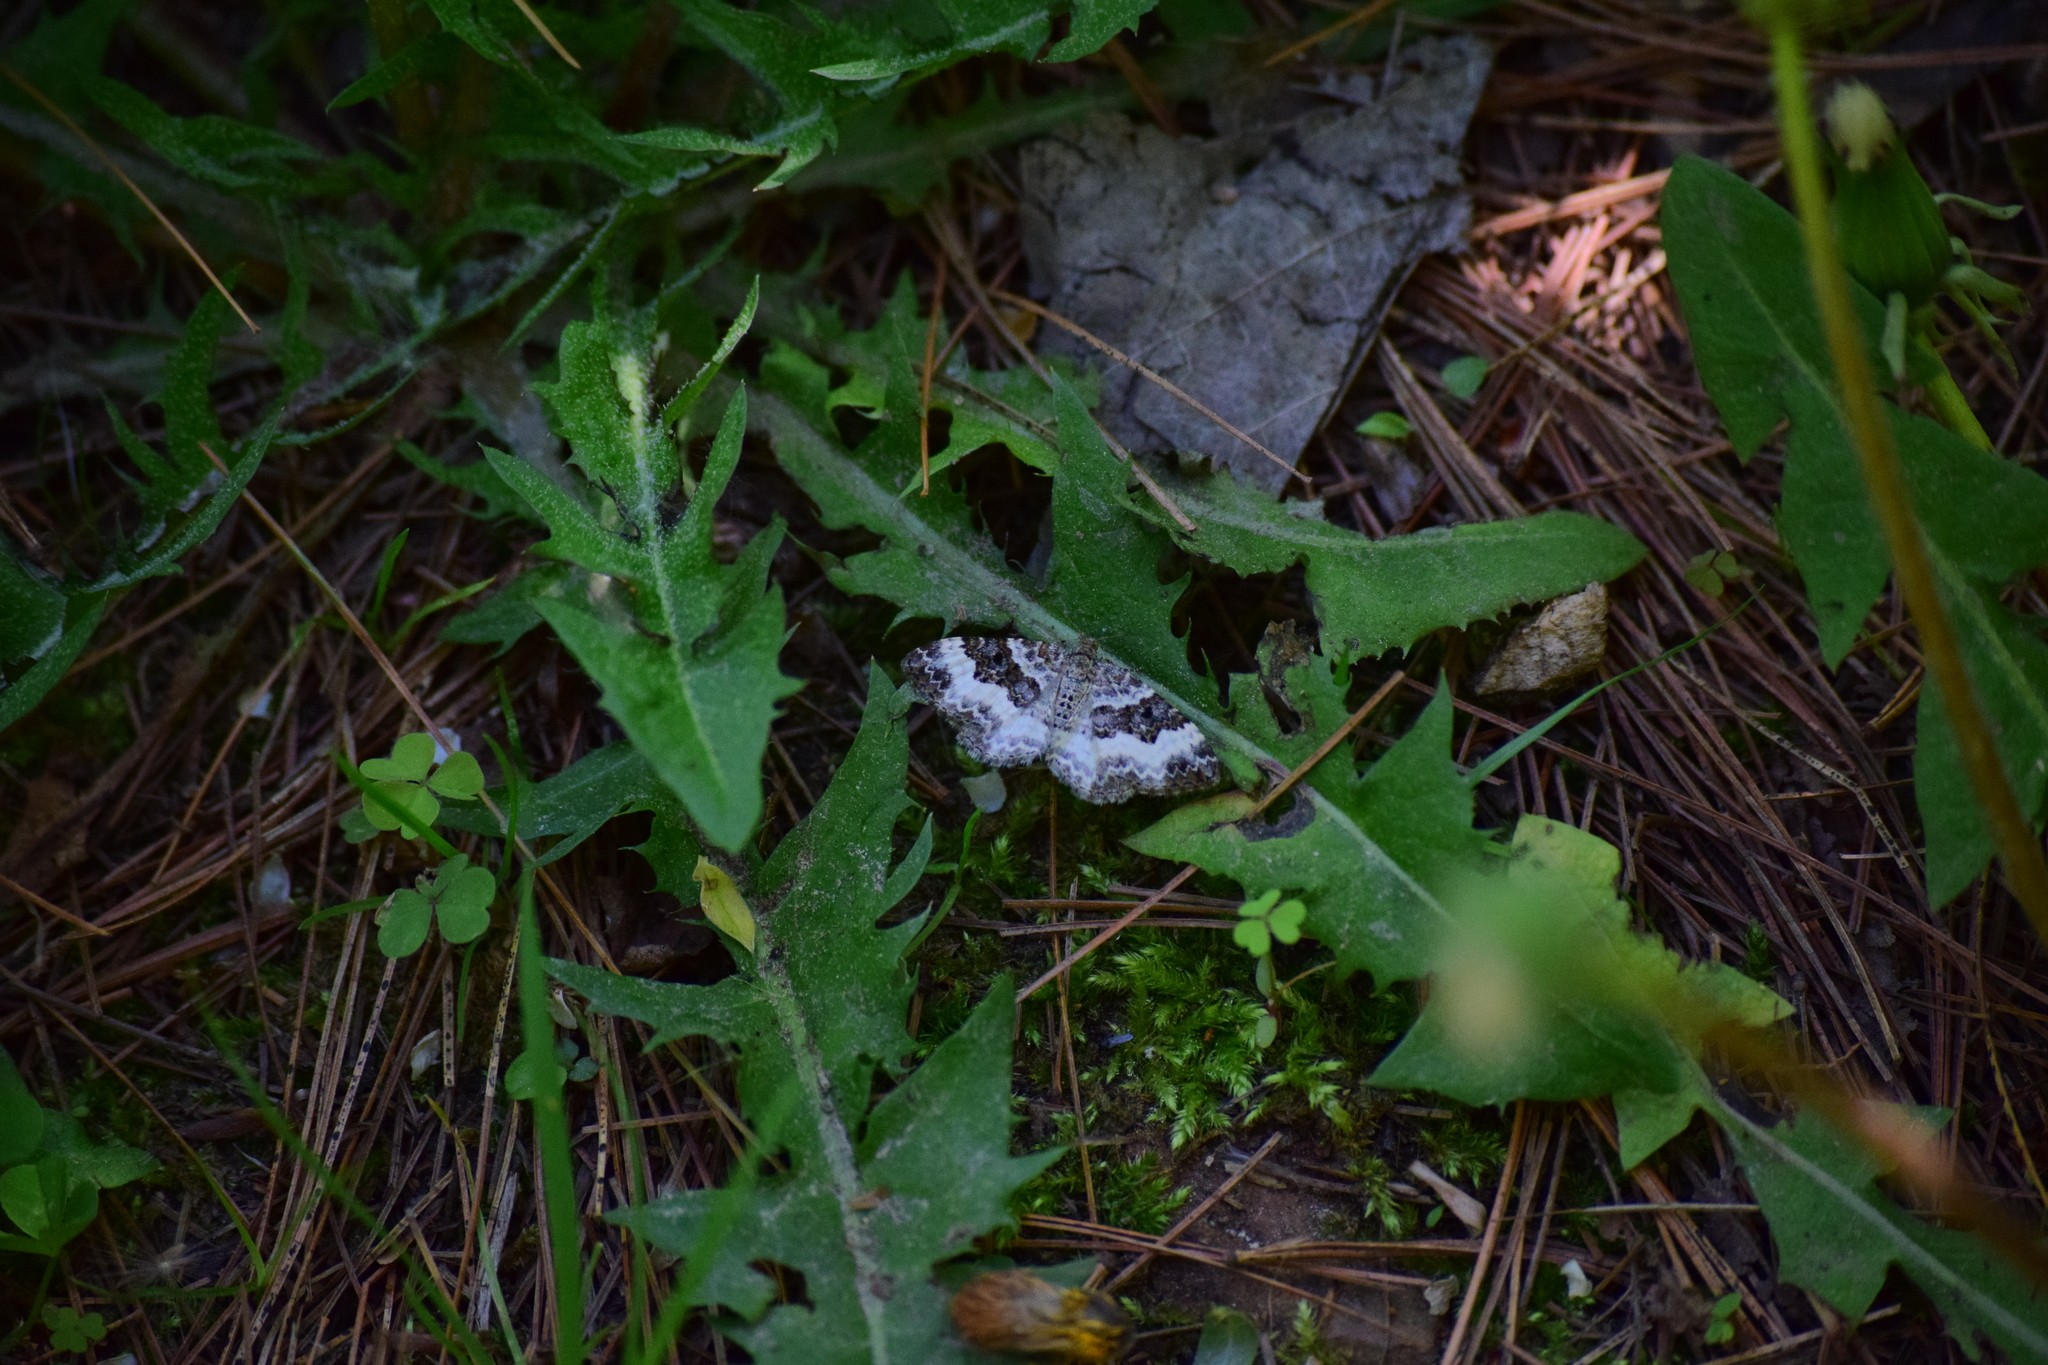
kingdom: Animalia
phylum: Arthropoda
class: Insecta
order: Lepidoptera
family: Geometridae
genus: Epirrhoe
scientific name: Epirrhoe alternata
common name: Common carpet
